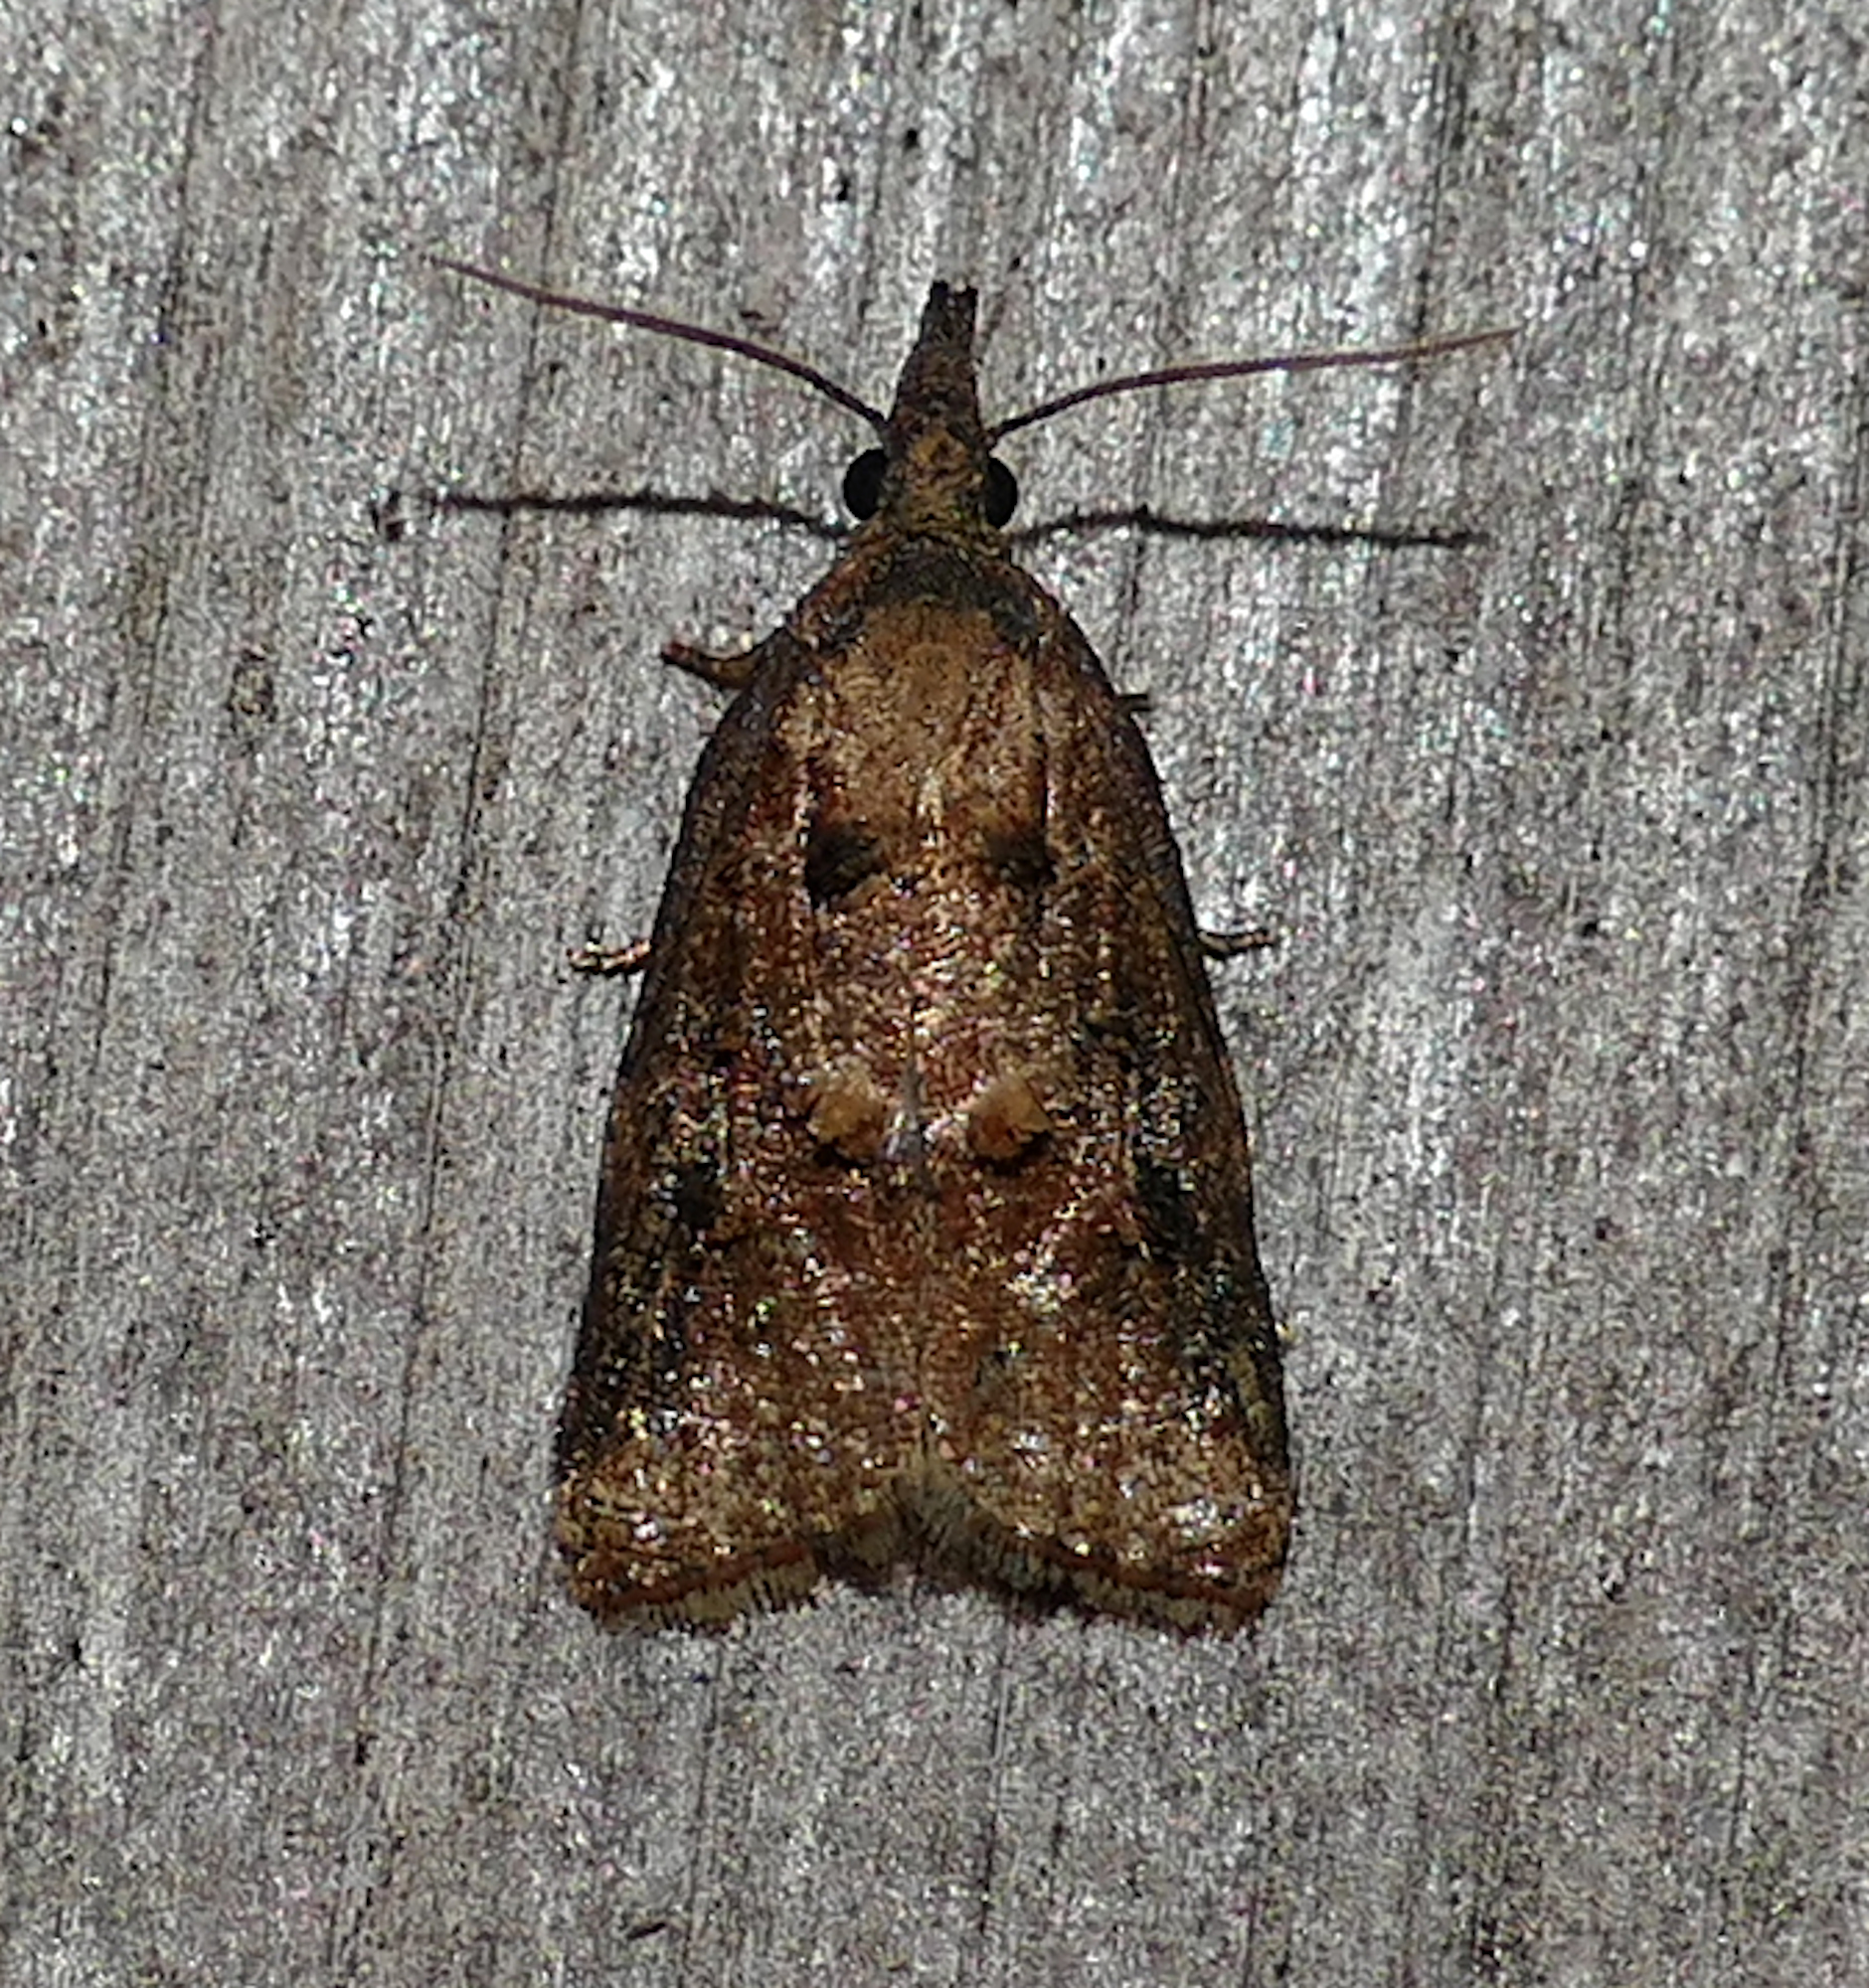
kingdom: Animalia
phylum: Arthropoda
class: Insecta
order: Lepidoptera
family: Tortricidae
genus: Platynota
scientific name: Platynota rostrana
